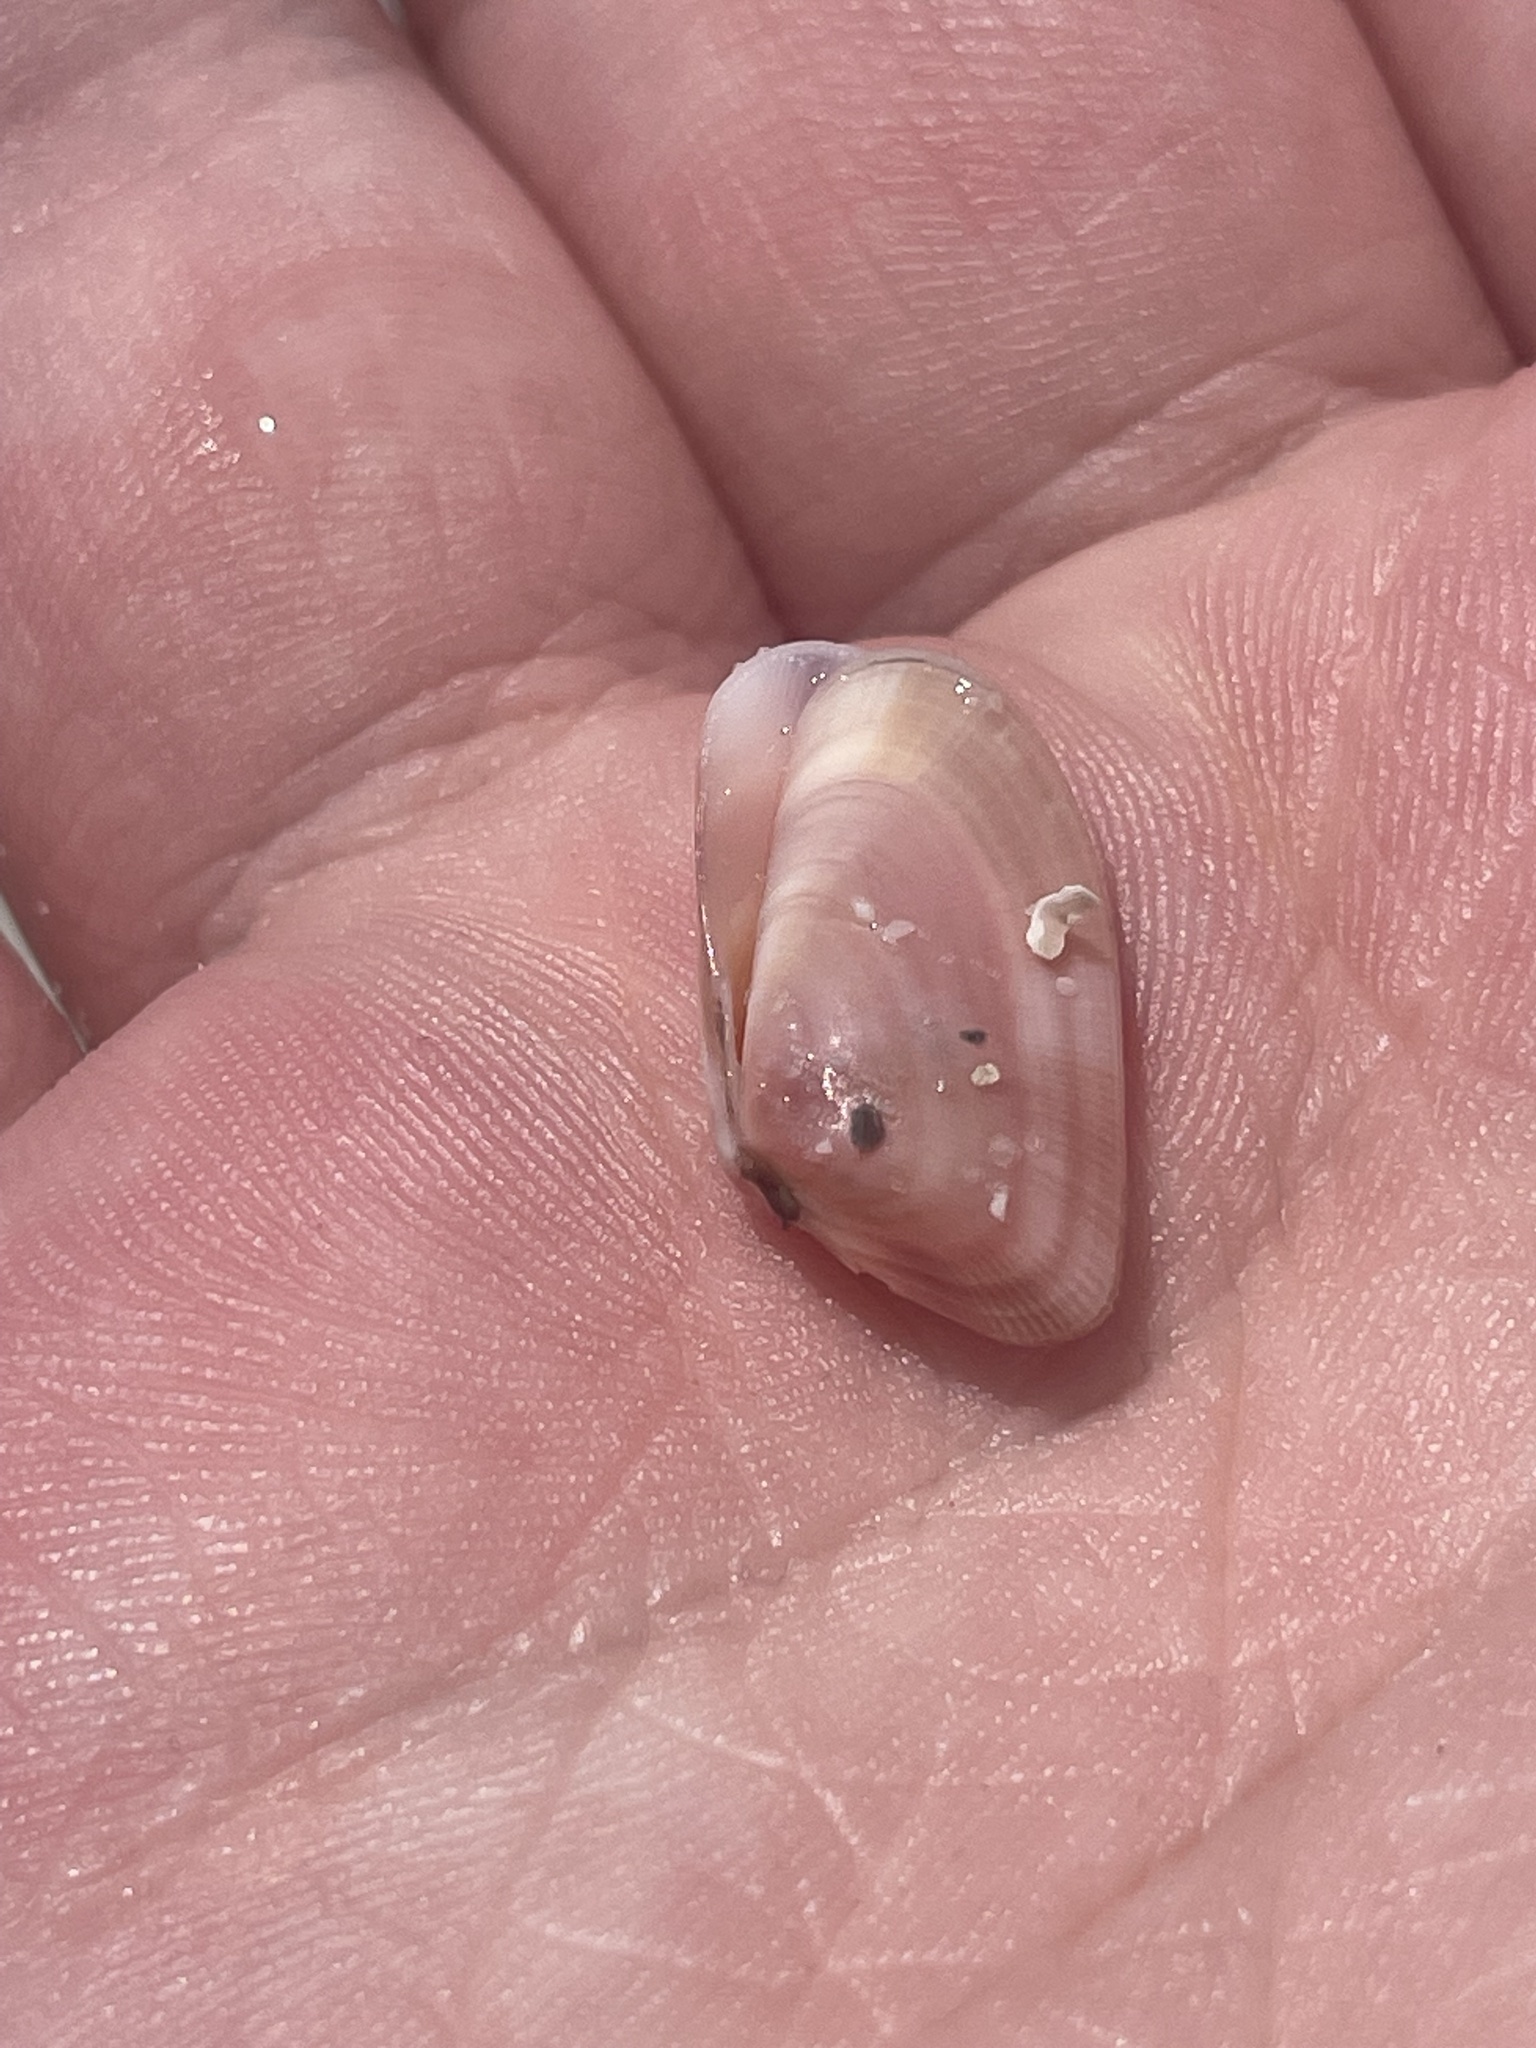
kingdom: Animalia
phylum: Mollusca
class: Bivalvia
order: Cardiida
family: Donacidae
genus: Donax
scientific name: Donax variabilis
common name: Butterfly shell
